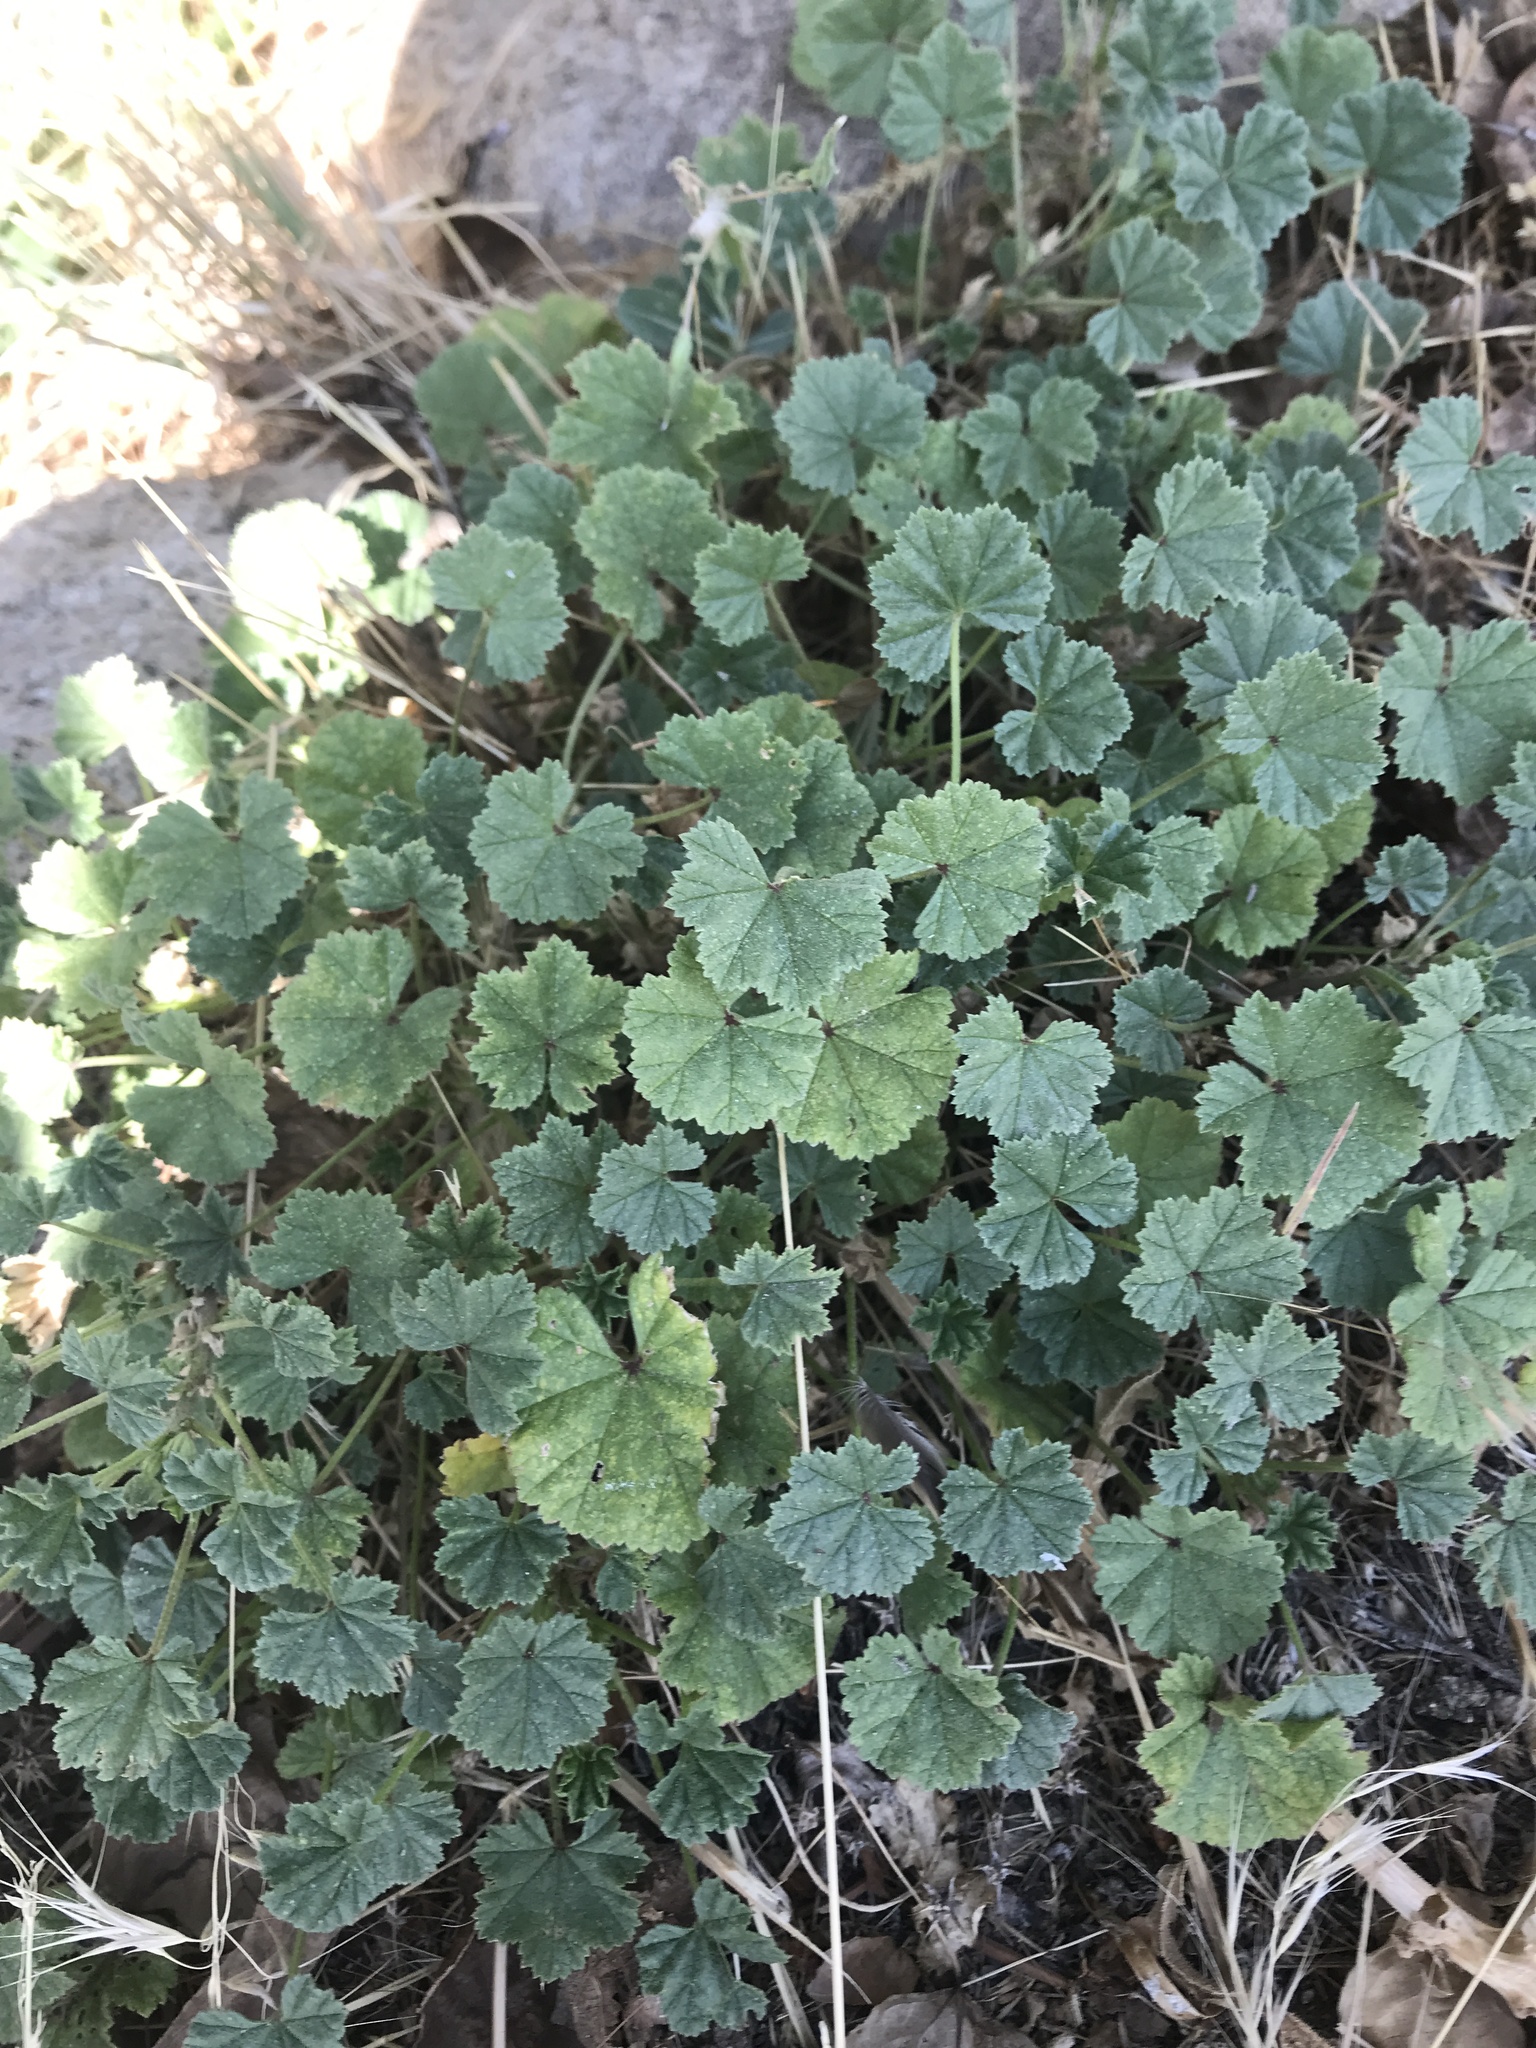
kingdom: Plantae
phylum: Tracheophyta
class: Magnoliopsida
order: Malvales
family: Malvaceae
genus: Malva
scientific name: Malva neglecta
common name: Common mallow
